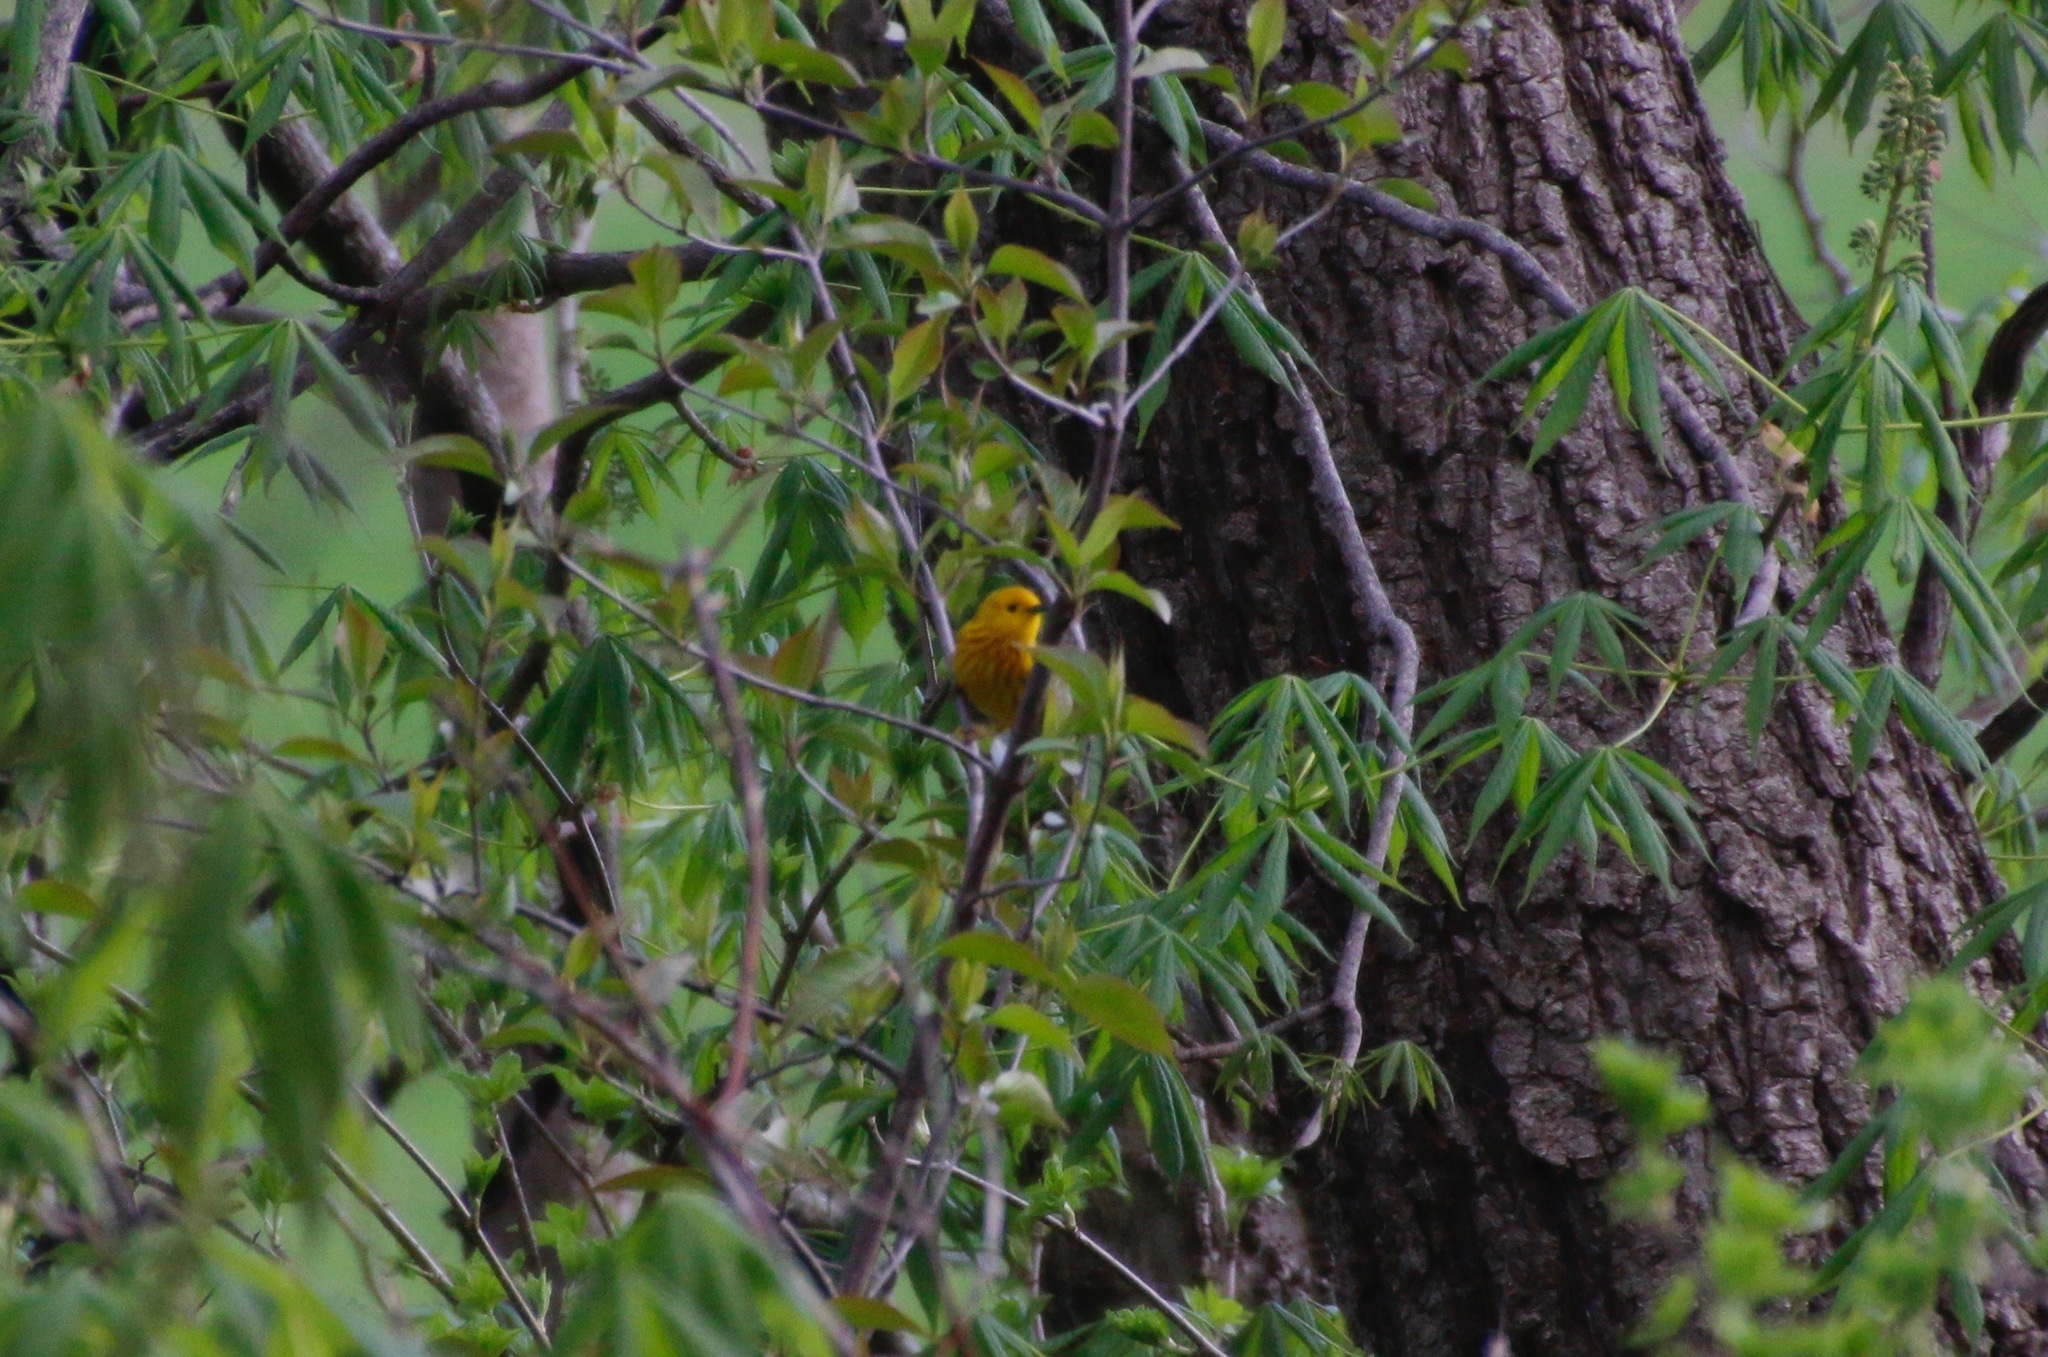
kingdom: Animalia
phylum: Chordata
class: Aves
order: Passeriformes
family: Parulidae
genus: Setophaga
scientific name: Setophaga petechia
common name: Yellow warbler
